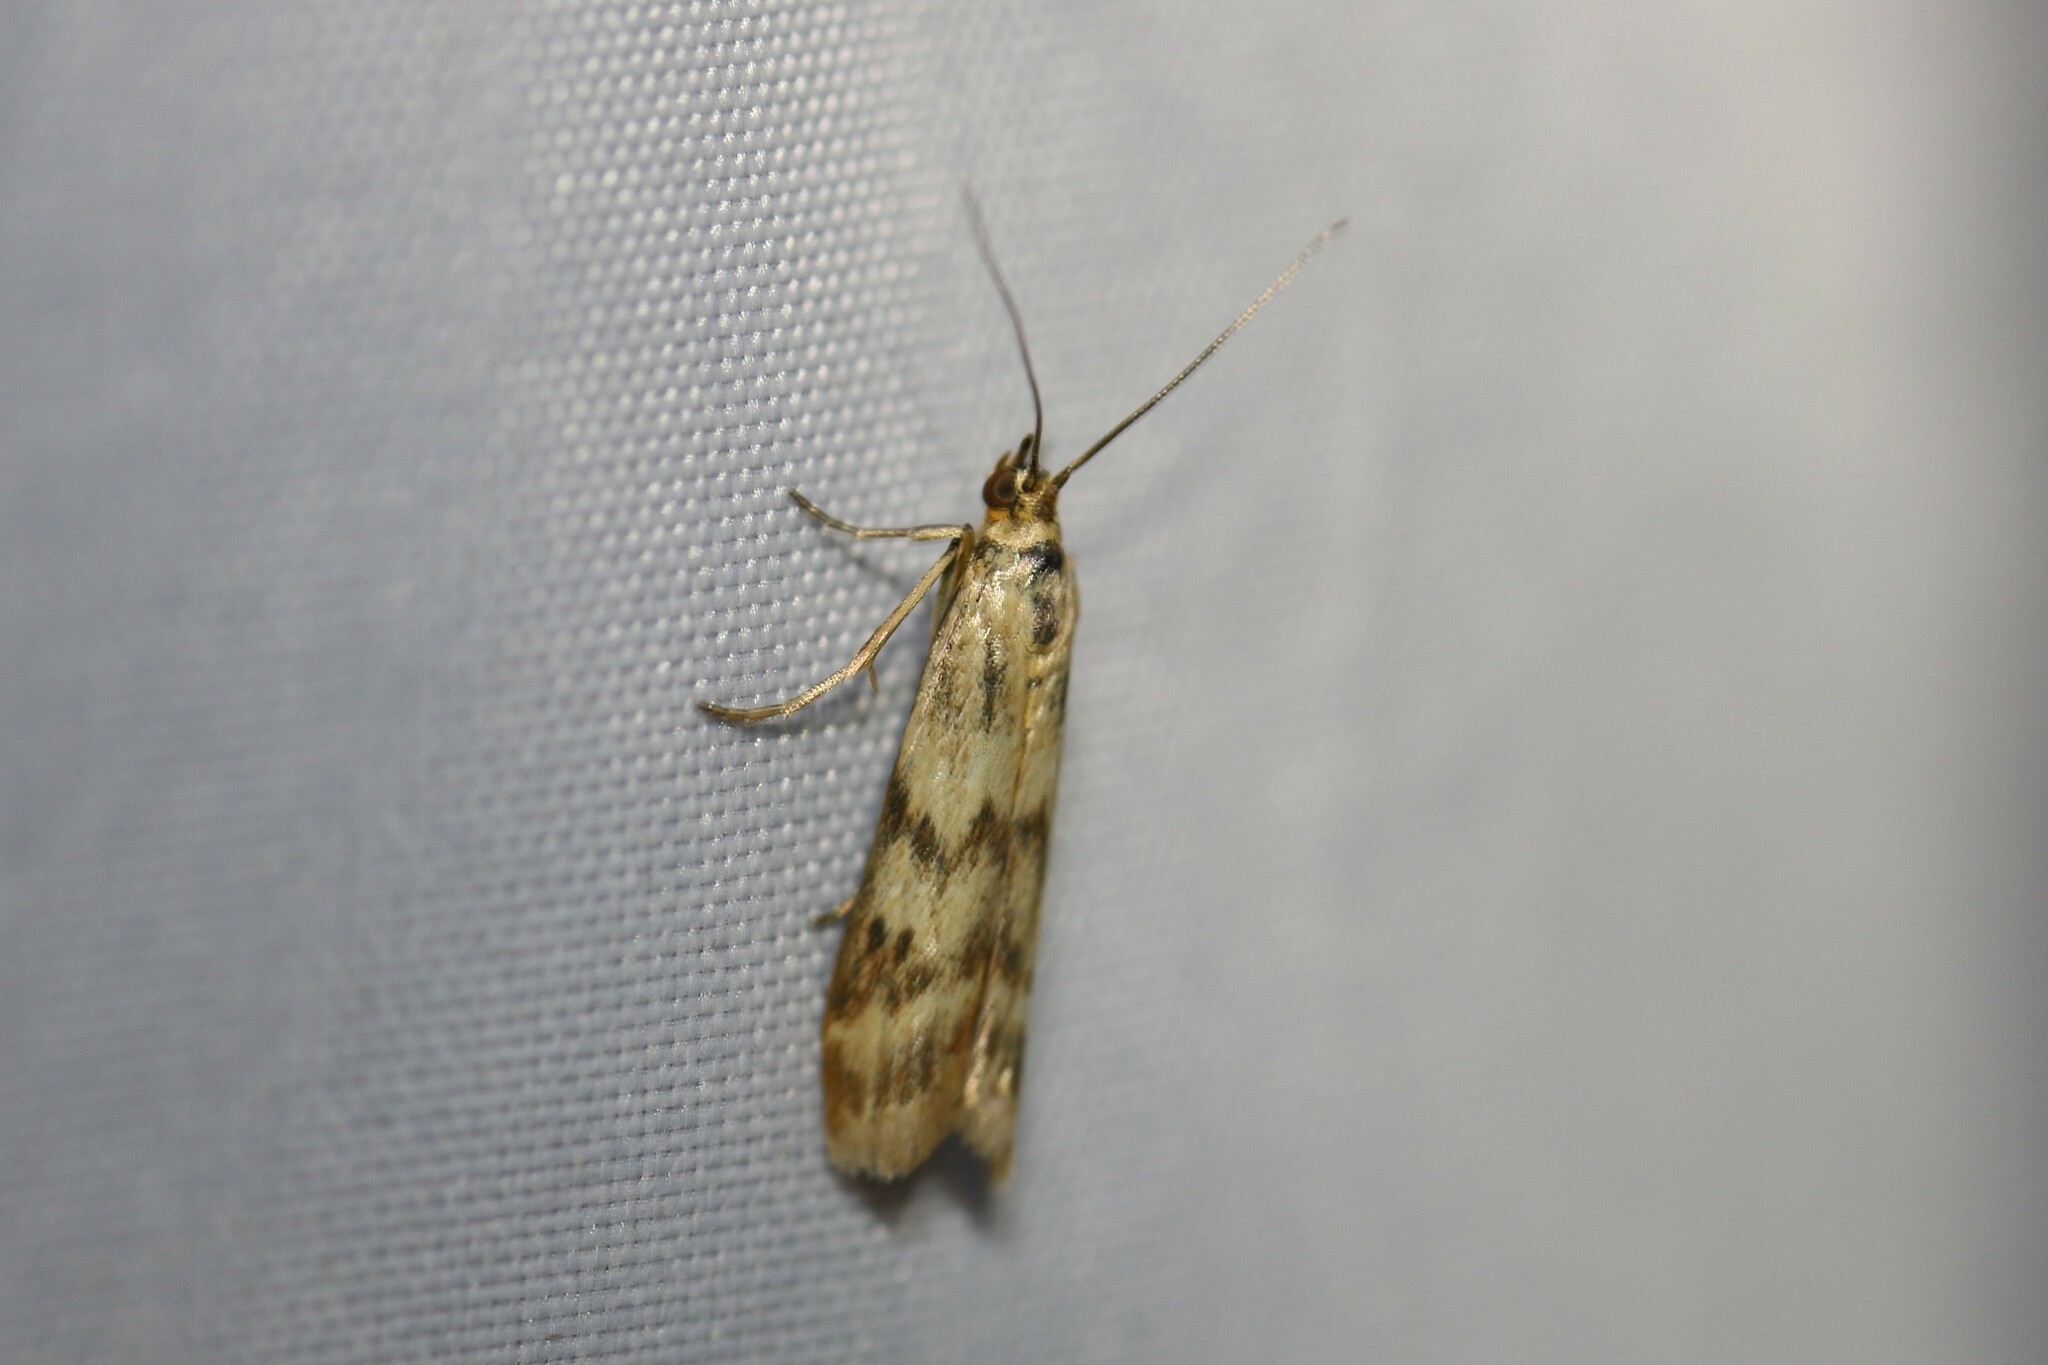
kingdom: Animalia
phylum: Arthropoda
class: Insecta
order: Lepidoptera
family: Pyralidae
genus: Homoeosoma
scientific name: Homoeosoma sinuella
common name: Twin-barred knot-horn
